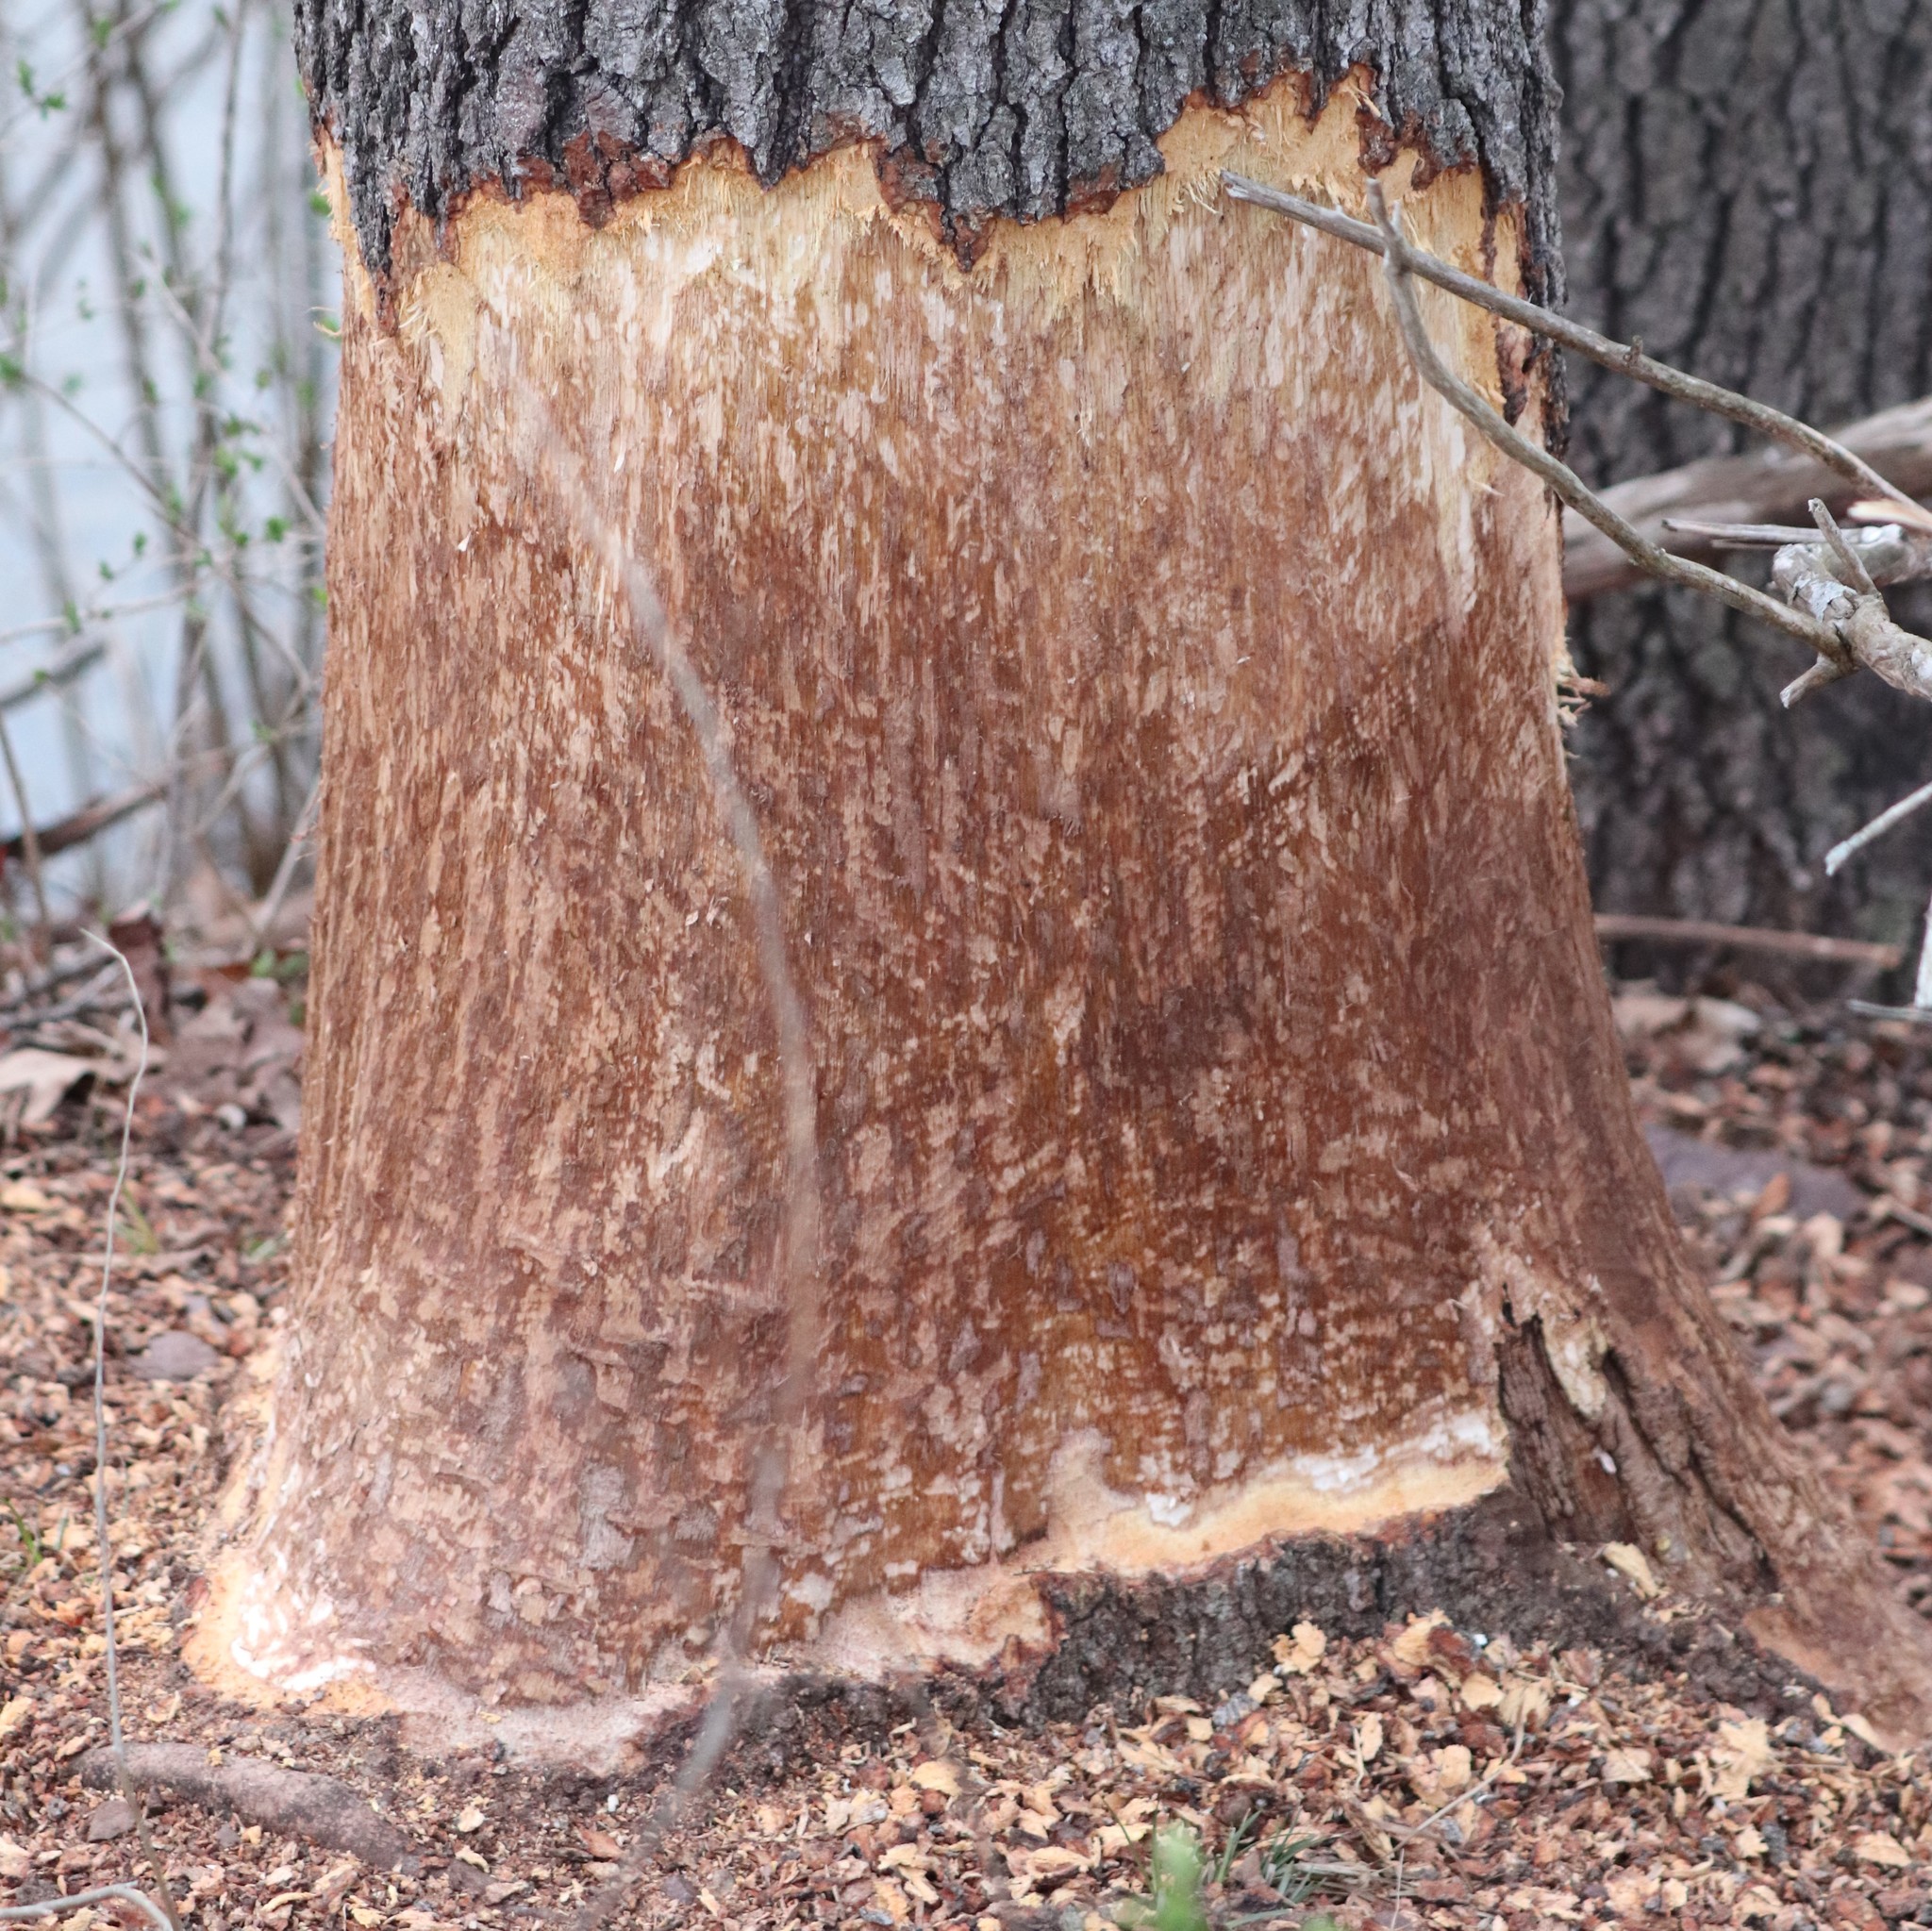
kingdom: Animalia
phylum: Chordata
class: Mammalia
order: Rodentia
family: Castoridae
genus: Castor
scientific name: Castor canadensis
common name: American beaver
